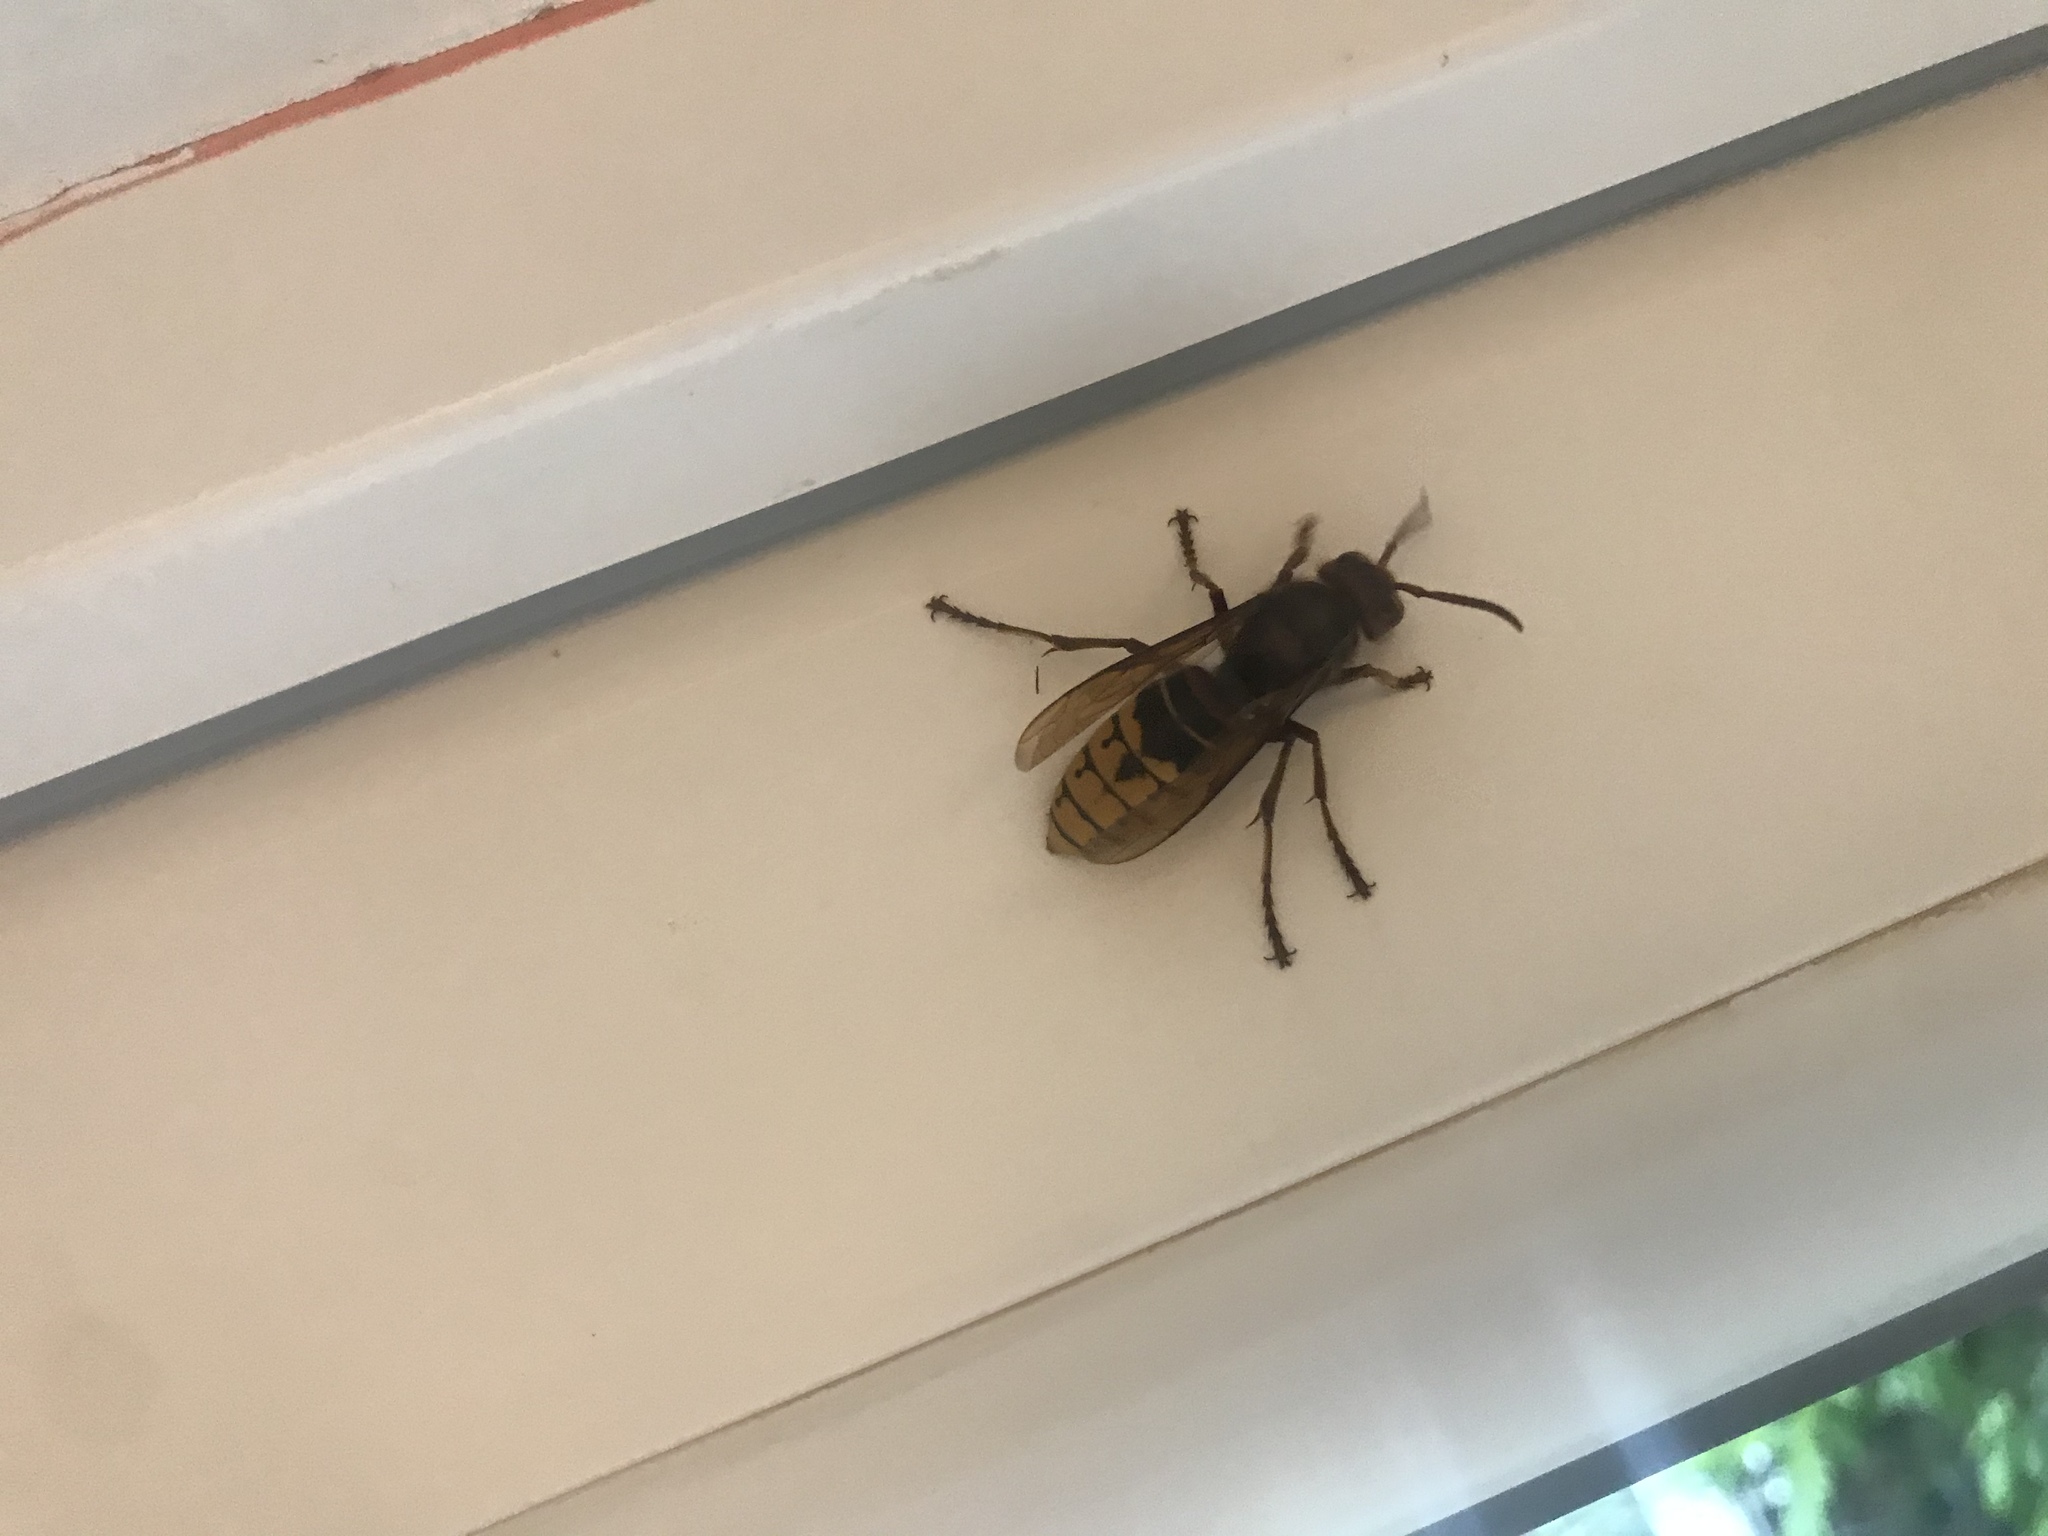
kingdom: Animalia
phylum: Arthropoda
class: Insecta
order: Hymenoptera
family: Vespidae
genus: Vespa
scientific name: Vespa crabro
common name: Hornet
